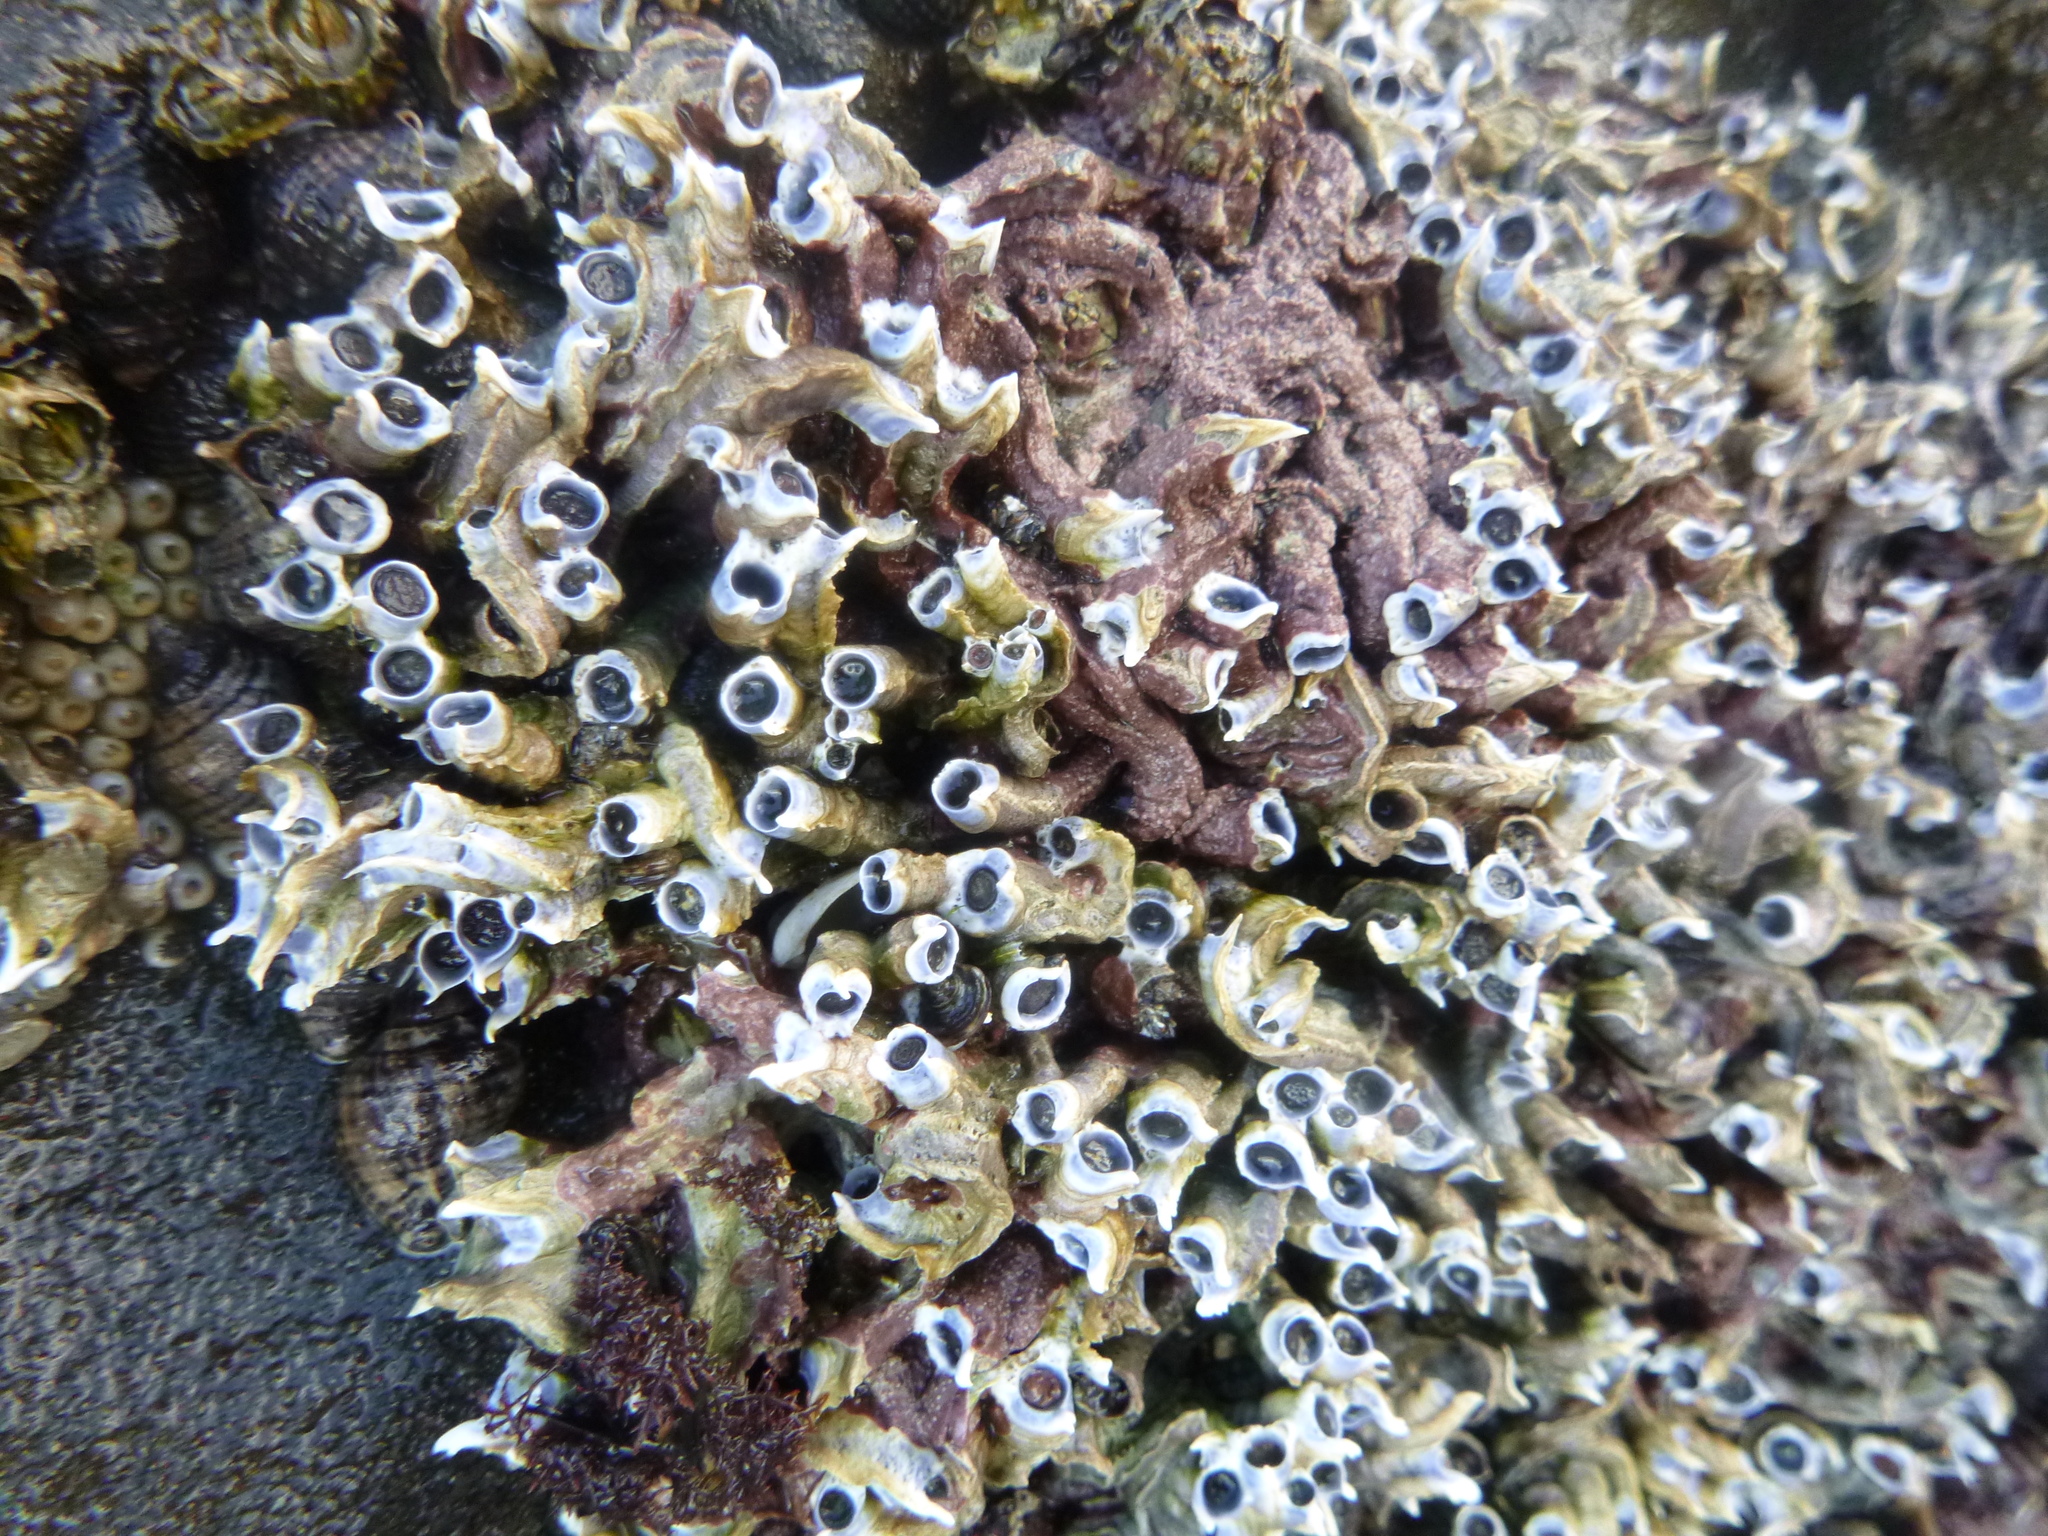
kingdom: Animalia
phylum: Annelida
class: Polychaeta
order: Sabellida
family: Serpulidae
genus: Spirobranchus
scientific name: Spirobranchus cariniferus
